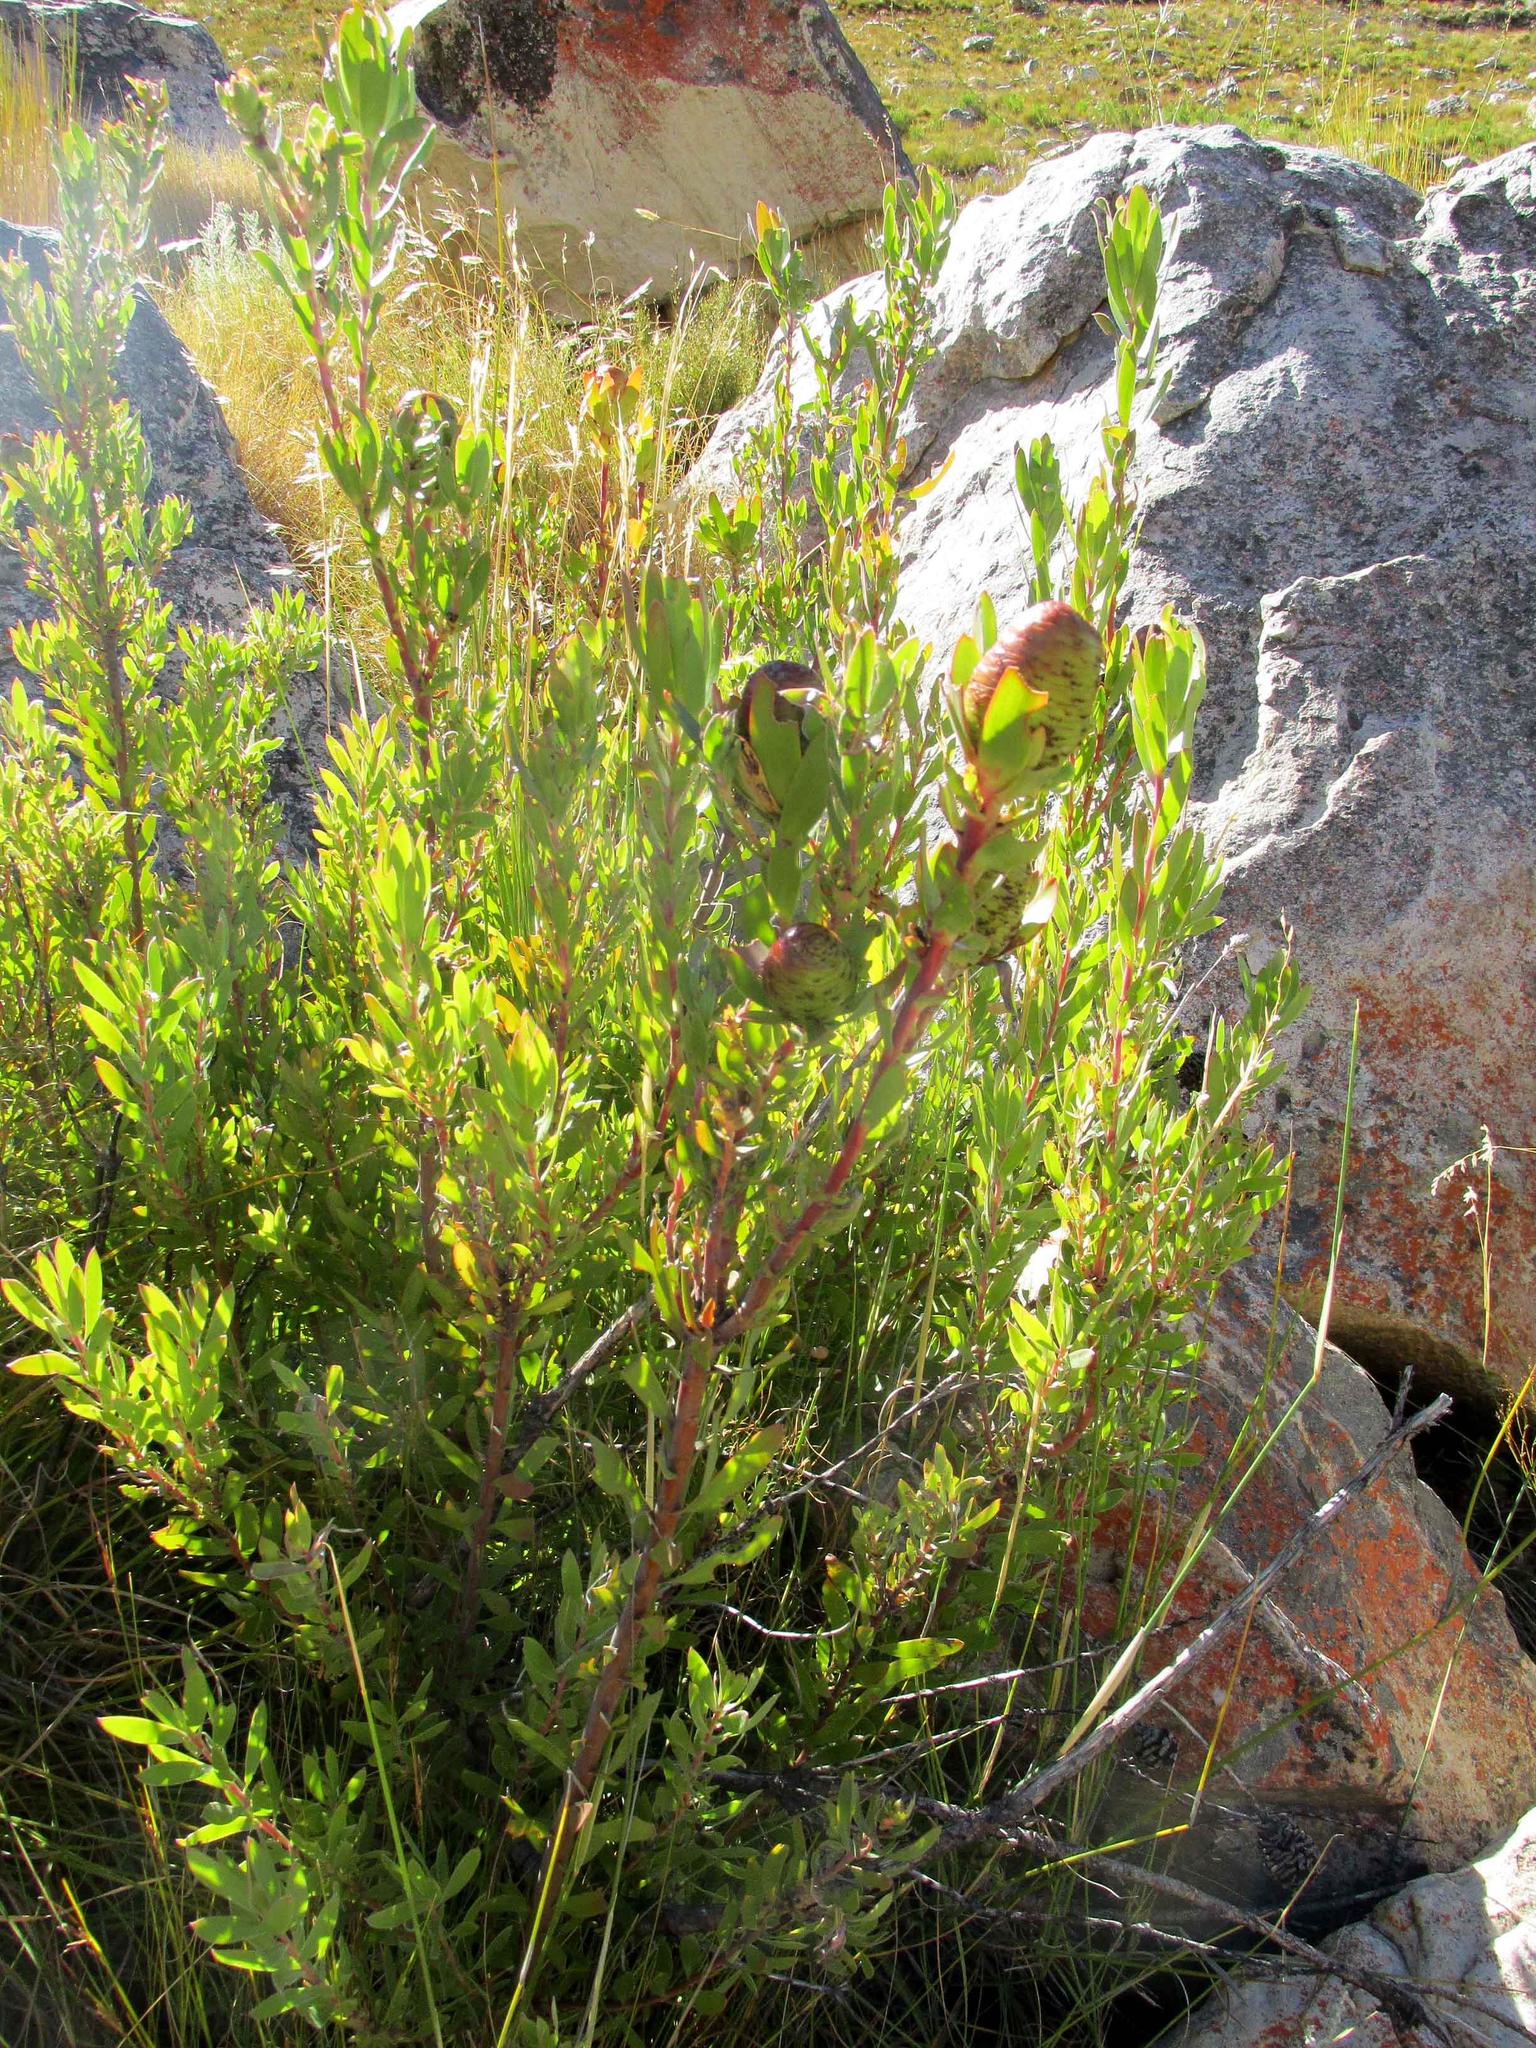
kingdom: Plantae
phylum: Tracheophyta
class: Magnoliopsida
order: Proteales
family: Proteaceae
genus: Leucadendron
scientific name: Leucadendron spissifolium
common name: Spear-leaf conebush
